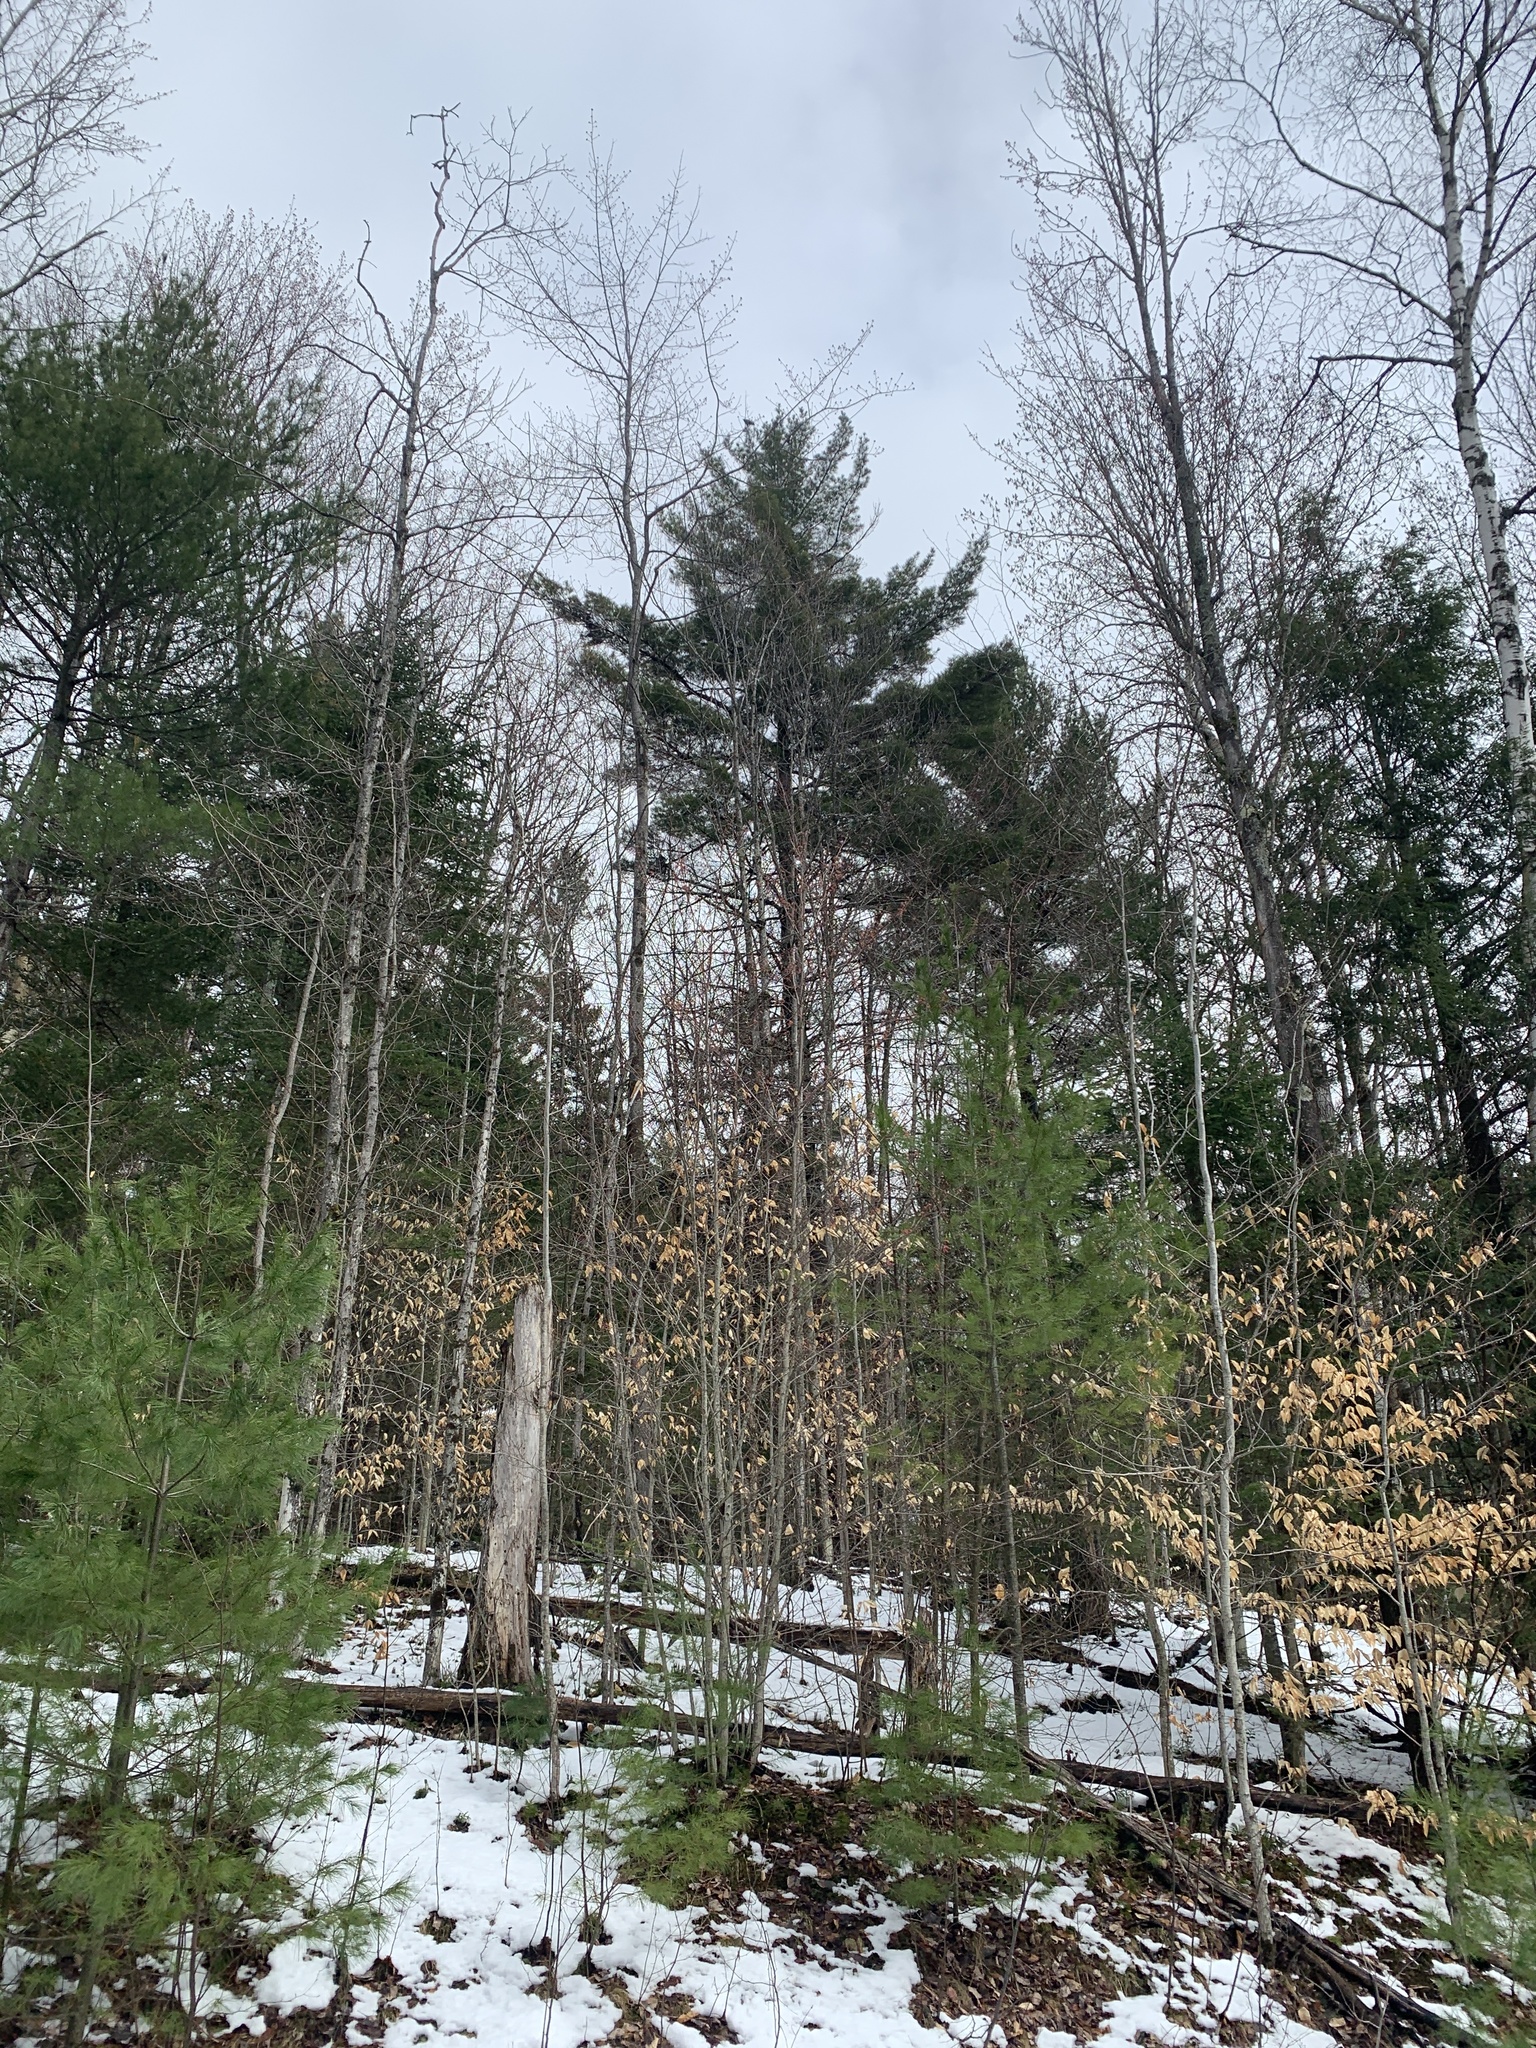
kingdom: Plantae
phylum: Tracheophyta
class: Pinopsida
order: Pinales
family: Pinaceae
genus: Pinus
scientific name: Pinus strobus
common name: Weymouth pine
